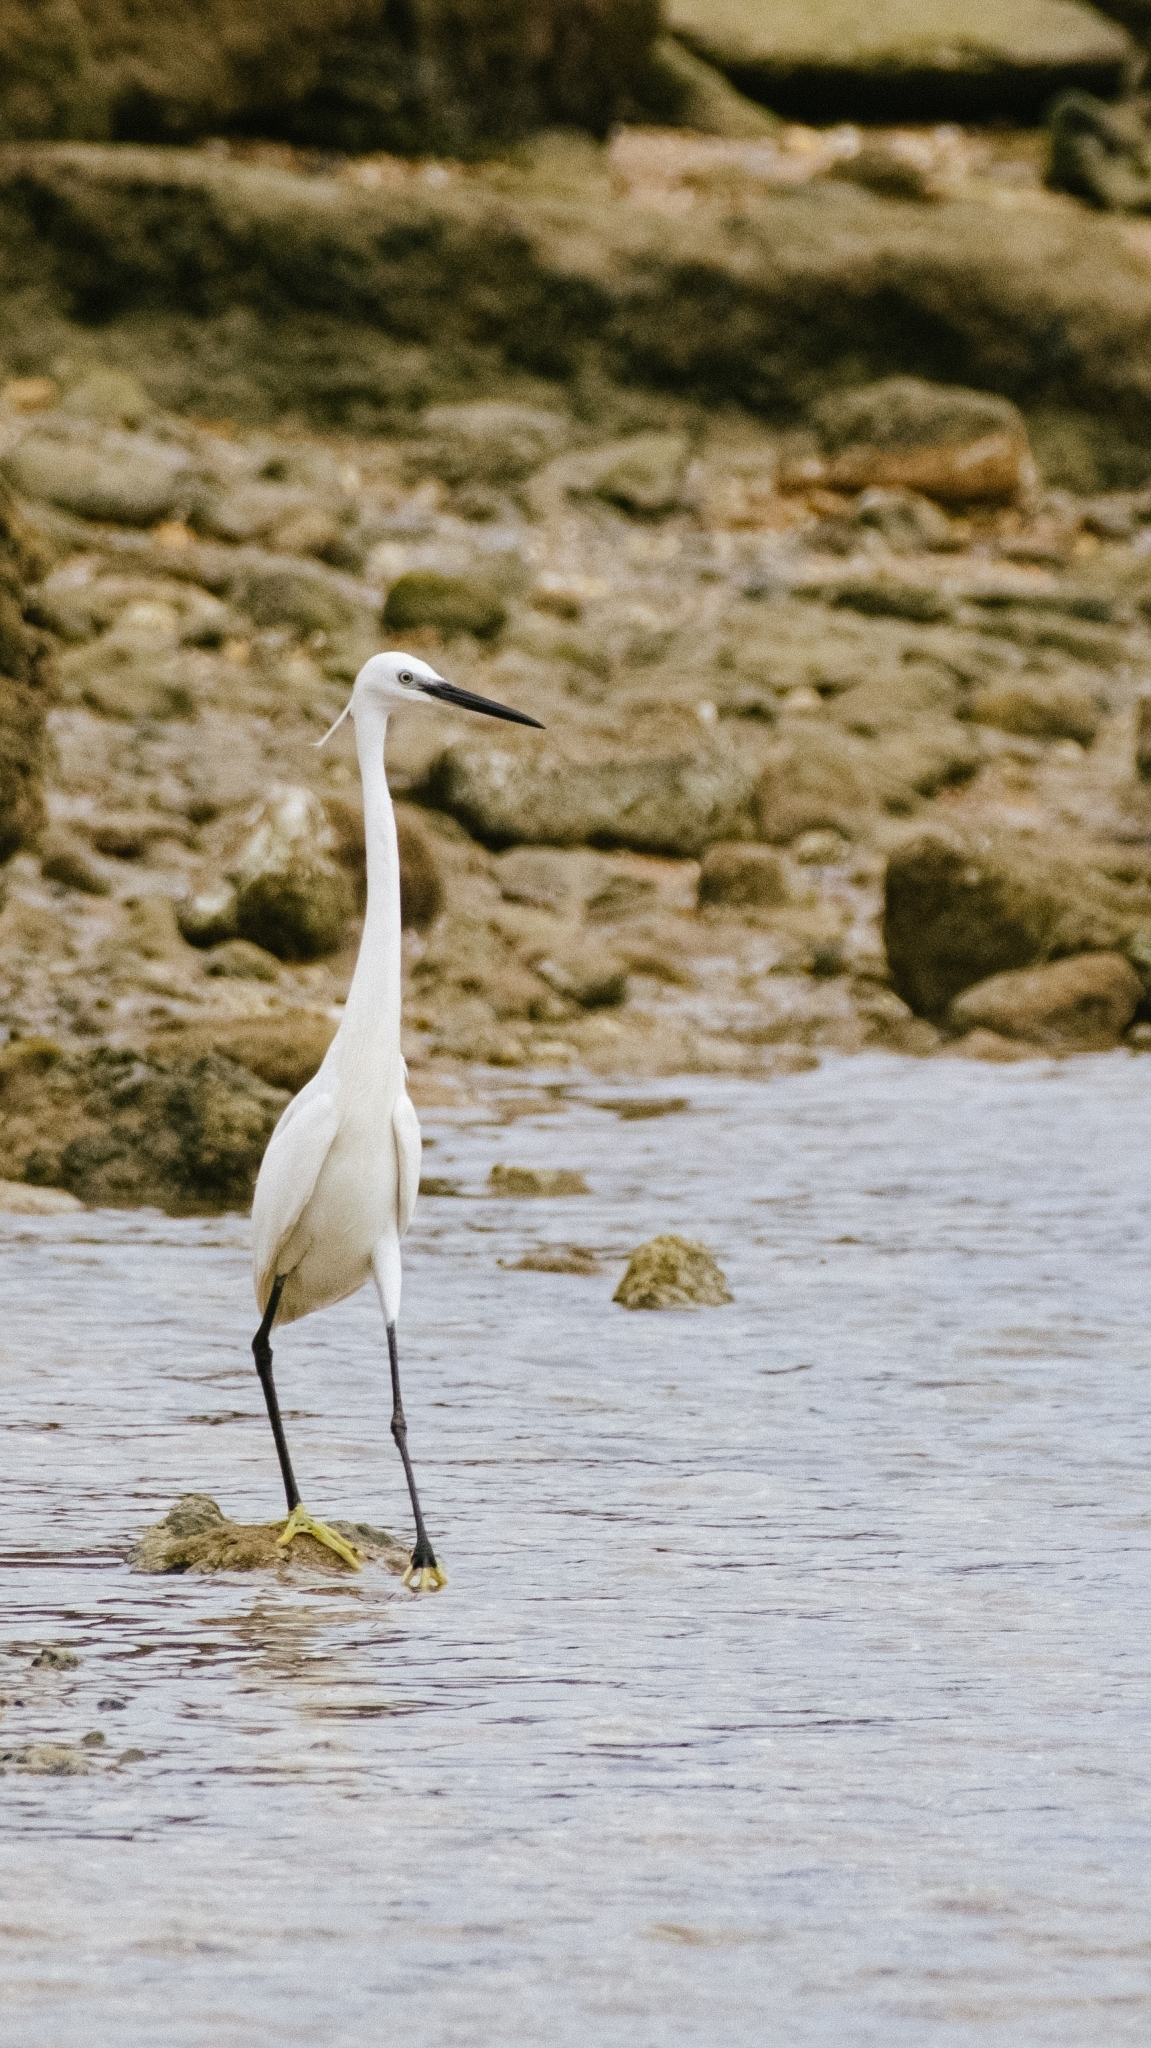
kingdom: Animalia
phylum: Chordata
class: Aves
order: Pelecaniformes
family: Ardeidae
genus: Egretta
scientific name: Egretta garzetta
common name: Little egret
